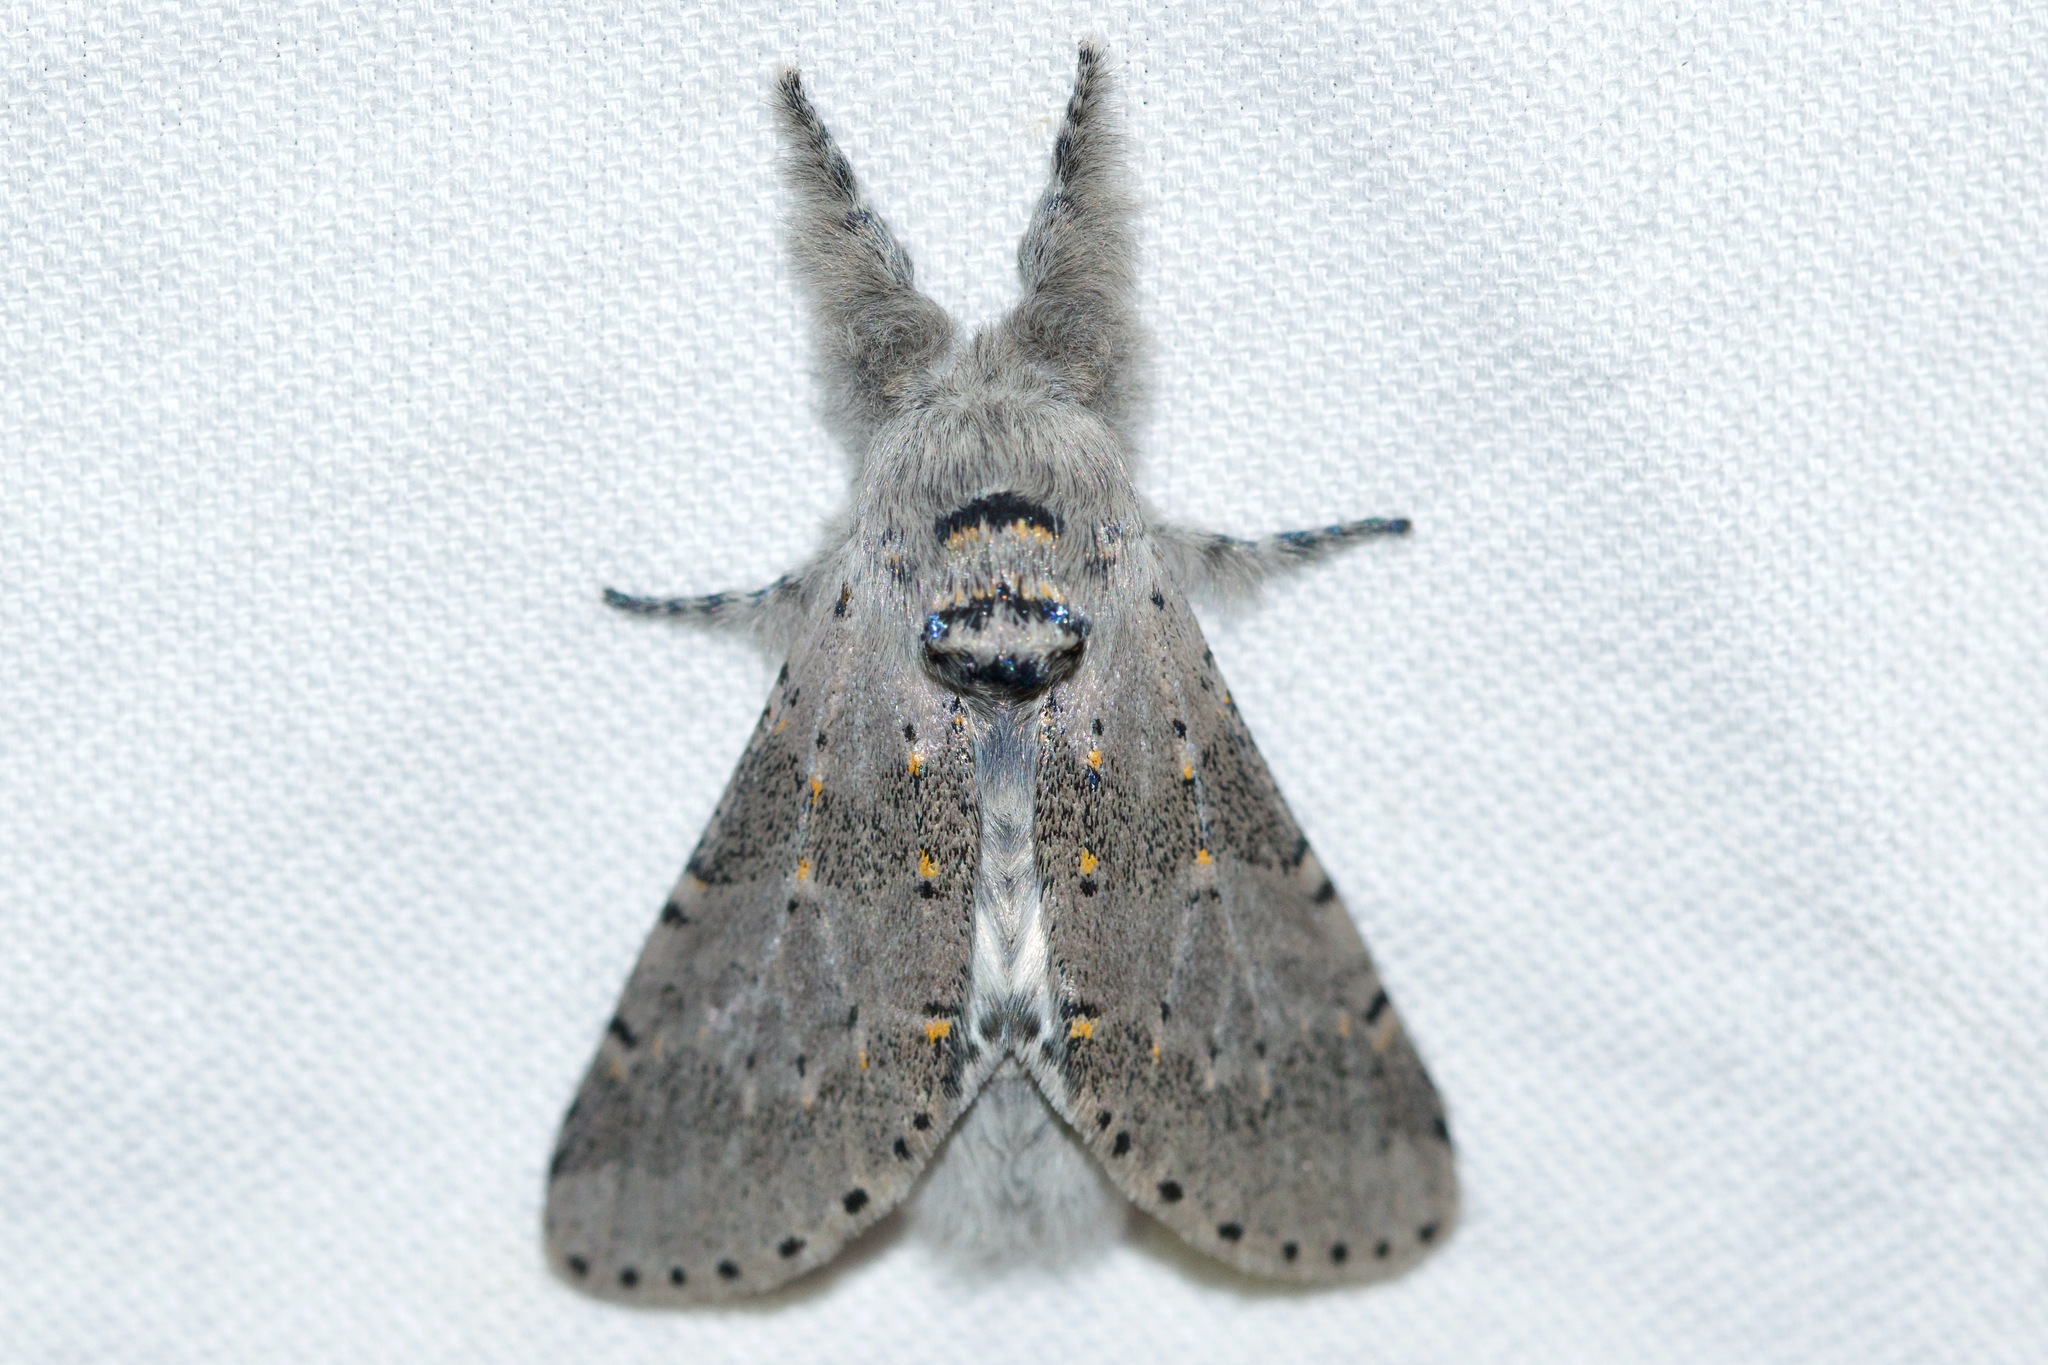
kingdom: Animalia
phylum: Arthropoda
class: Insecta
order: Lepidoptera
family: Notodontidae
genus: Furcula
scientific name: Furcula cinerea
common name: Gray furcula
